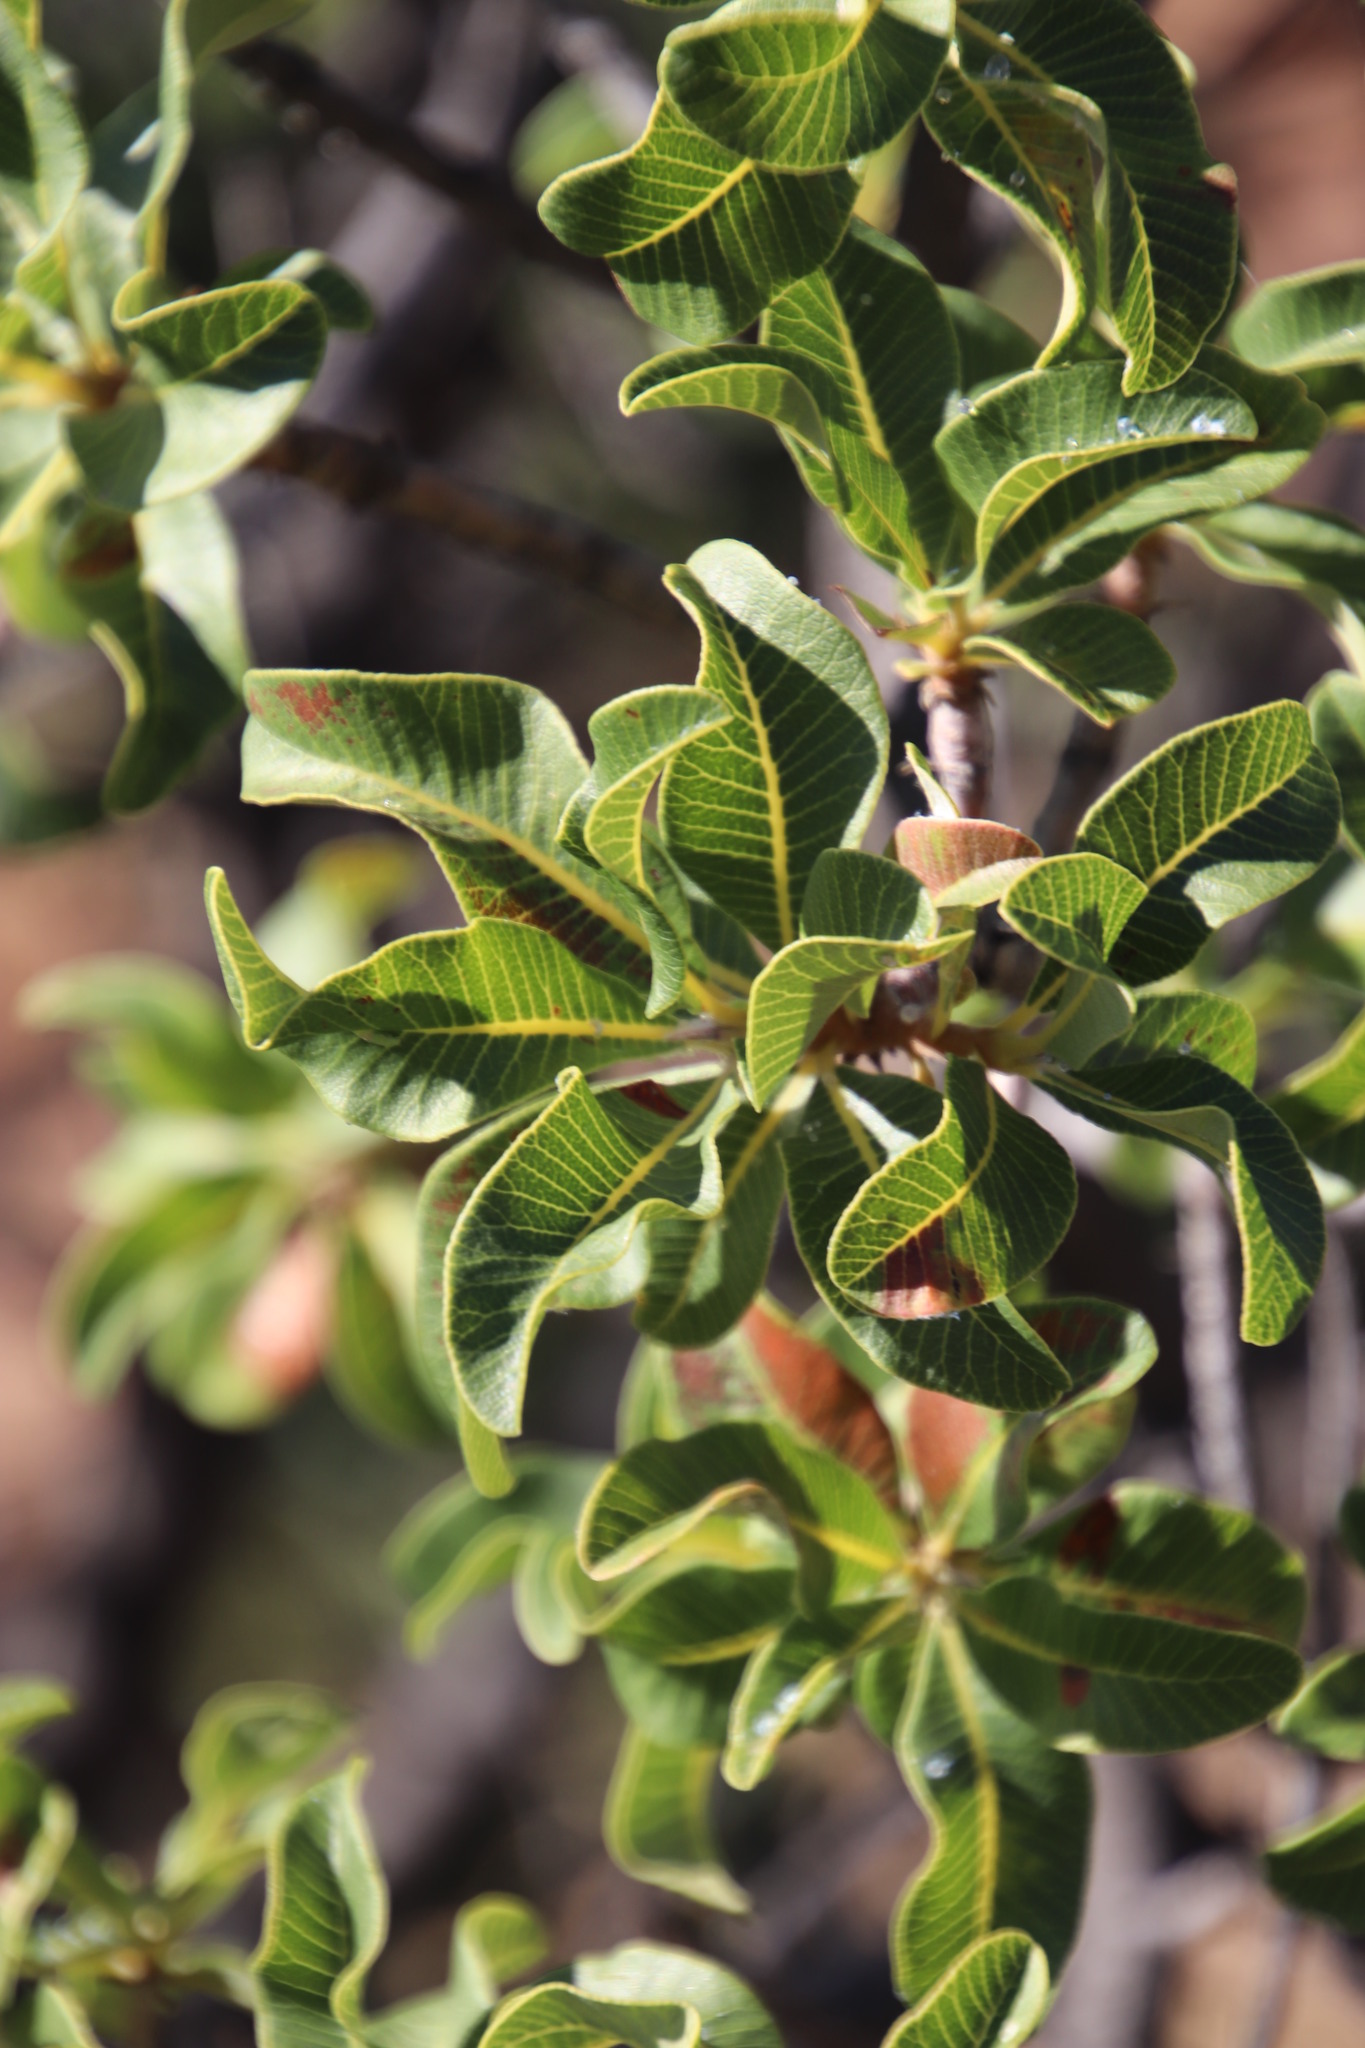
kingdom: Plantae
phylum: Tracheophyta
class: Magnoliopsida
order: Sapindales
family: Anacardiaceae
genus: Ozoroa
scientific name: Ozoroa dispar
